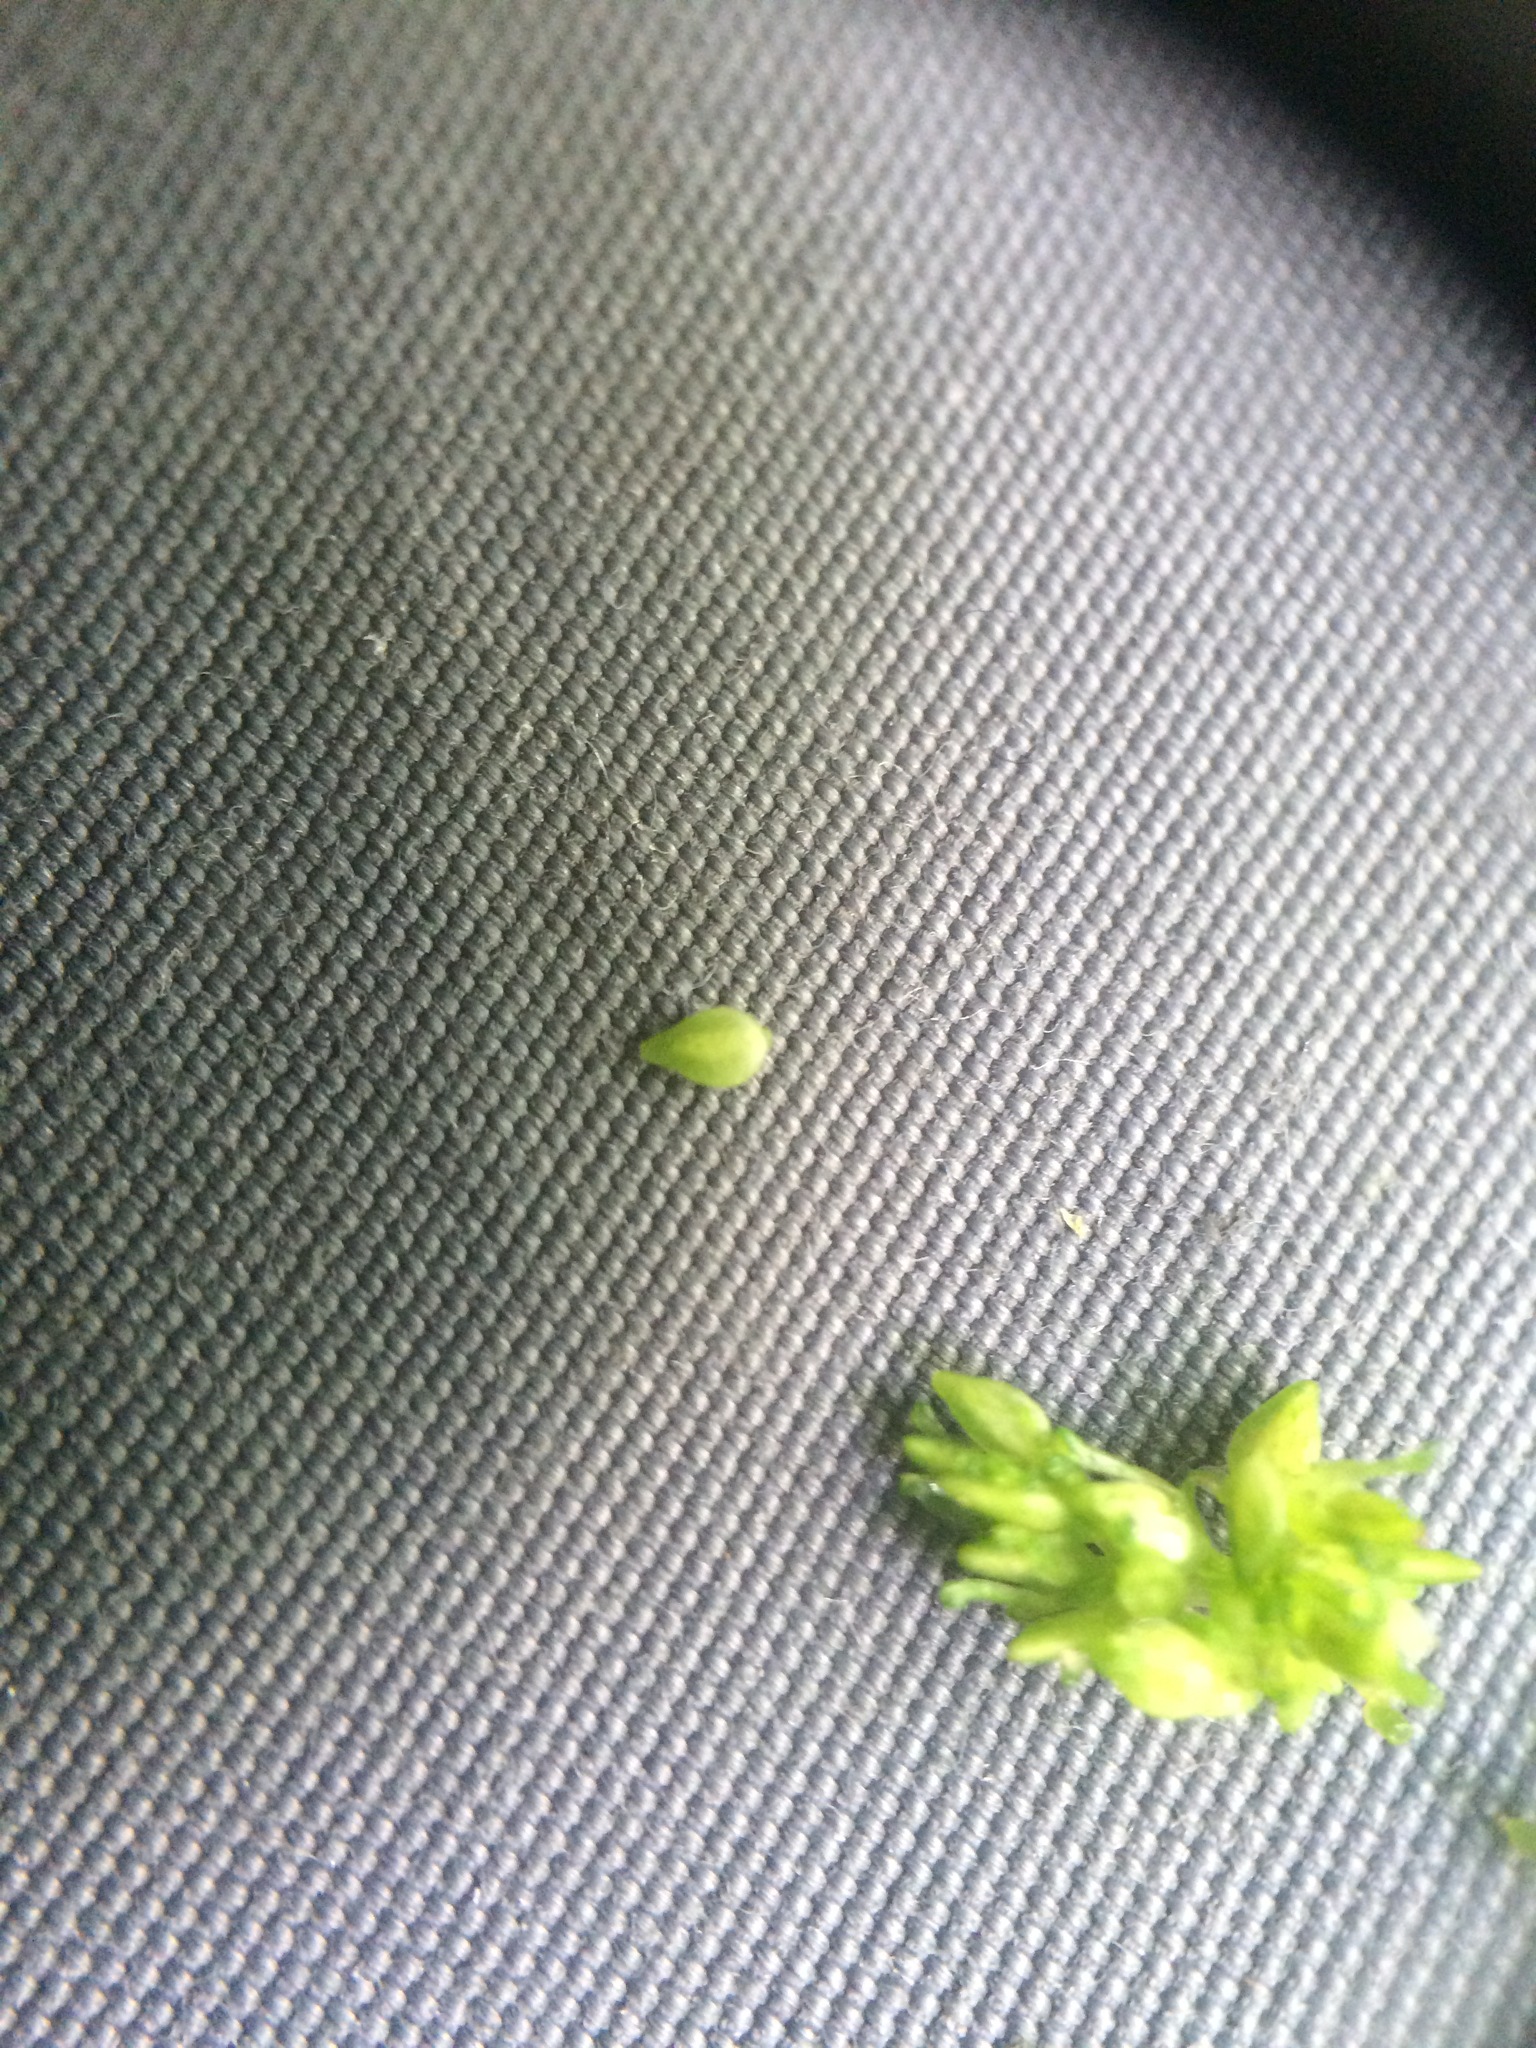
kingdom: Plantae
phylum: Tracheophyta
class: Magnoliopsida
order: Rosales
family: Urticaceae
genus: Pilea
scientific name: Pilea pumila
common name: Clearweed
